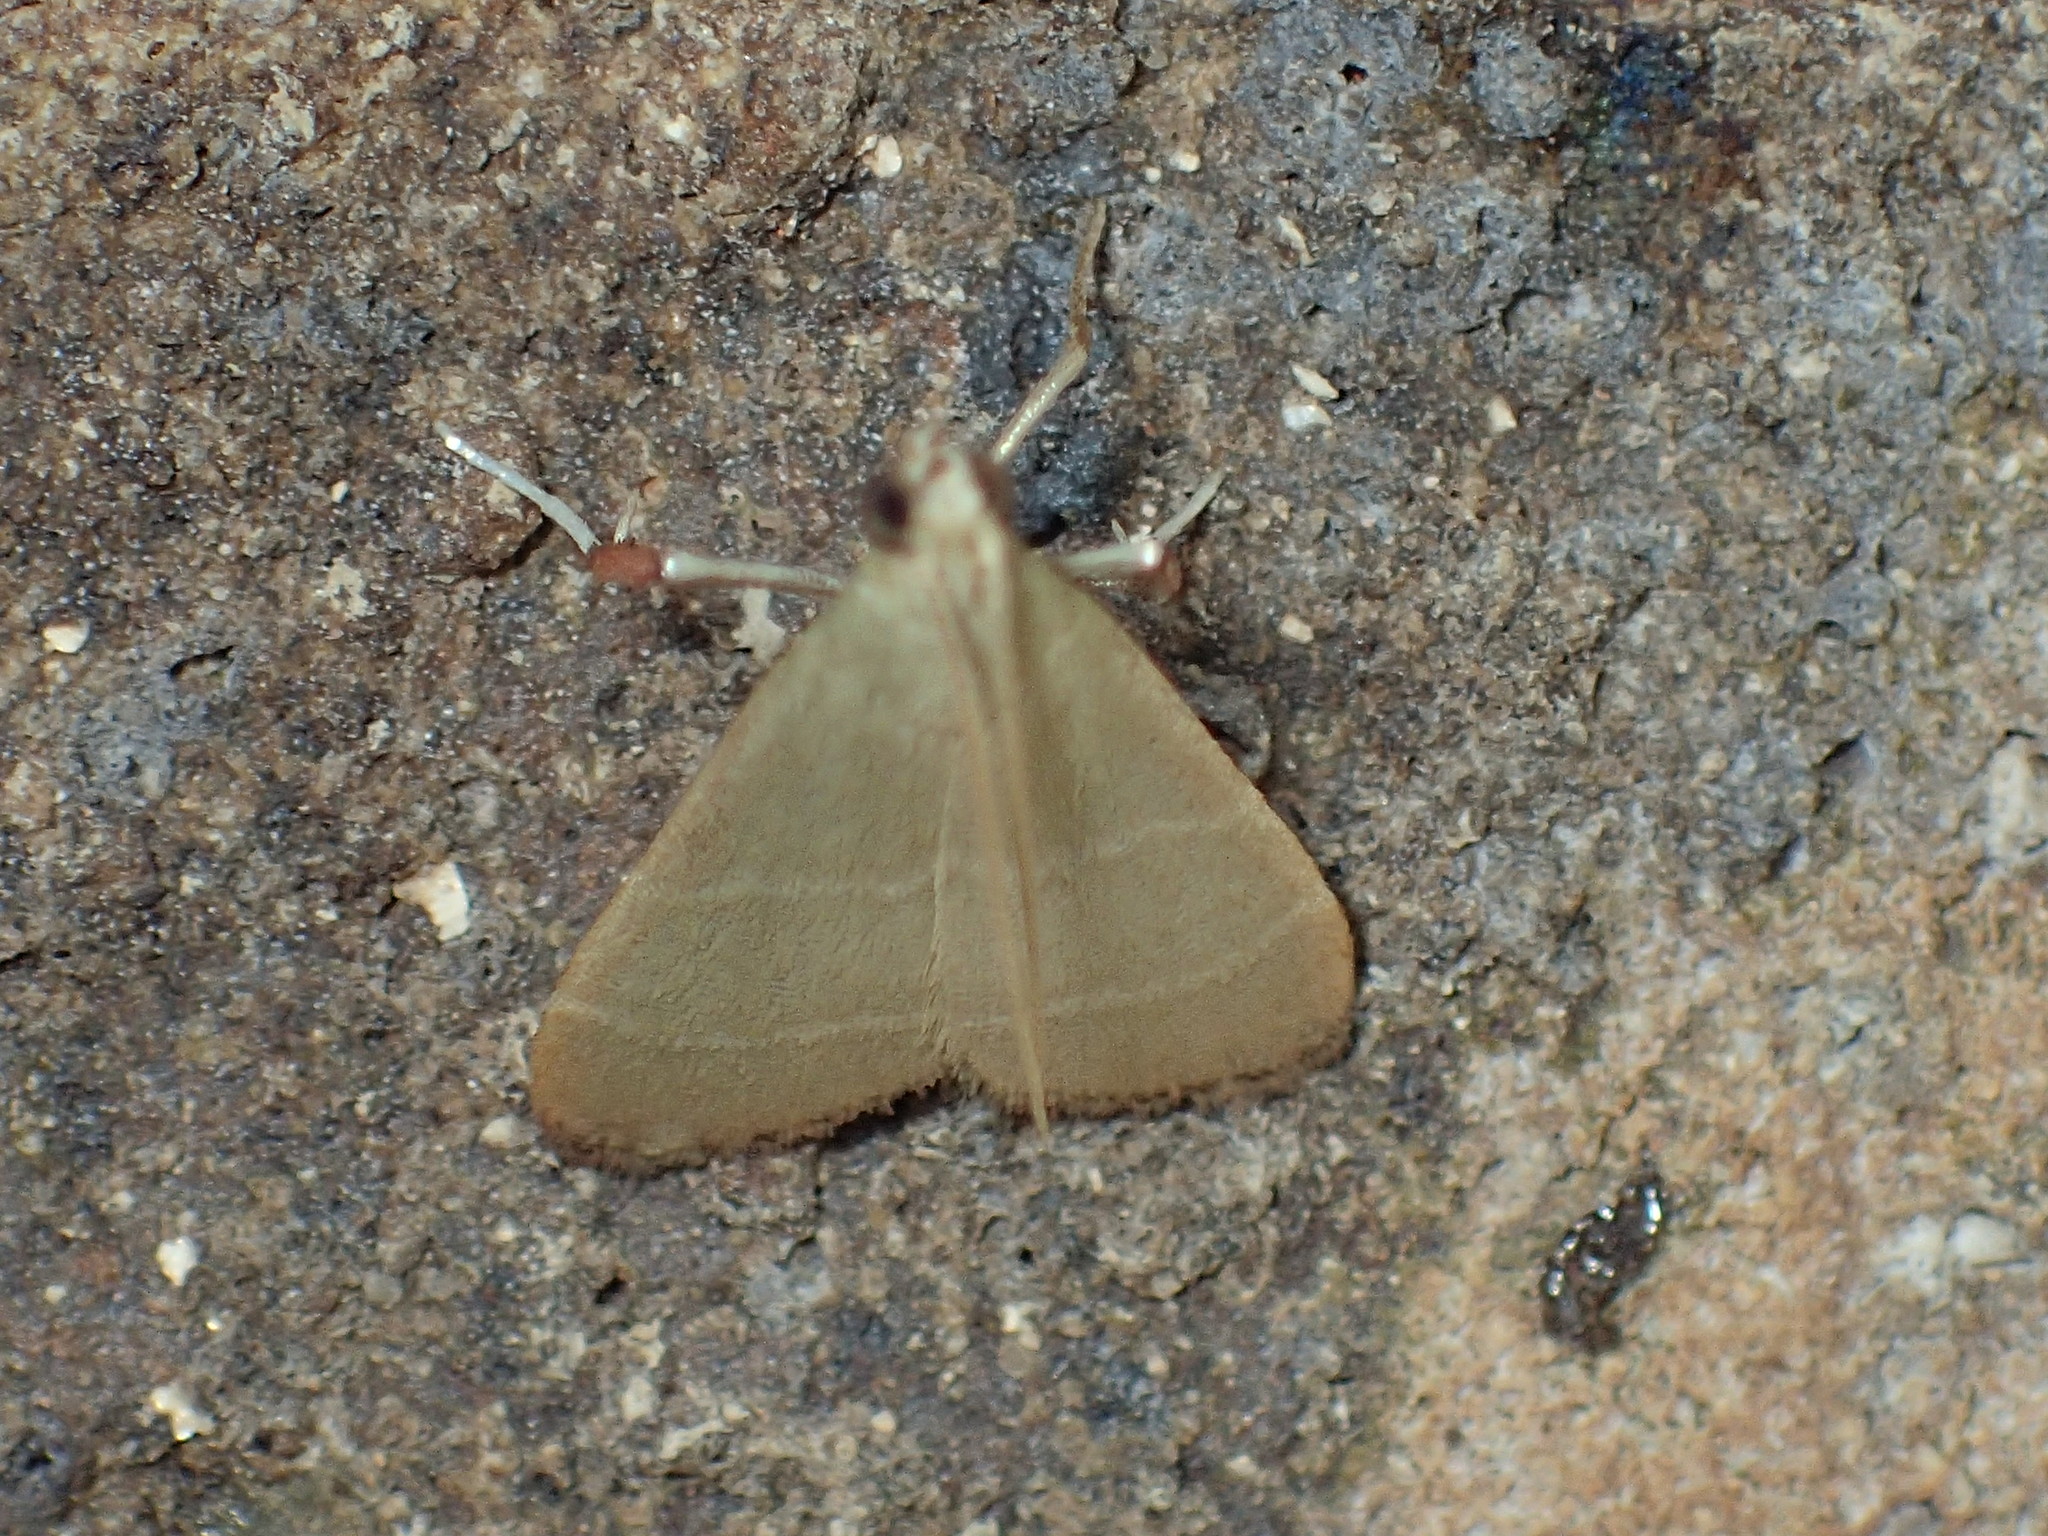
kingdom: Animalia
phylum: Arthropoda
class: Insecta
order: Lepidoptera
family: Pyralidae
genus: Arta
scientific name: Arta olivalis
